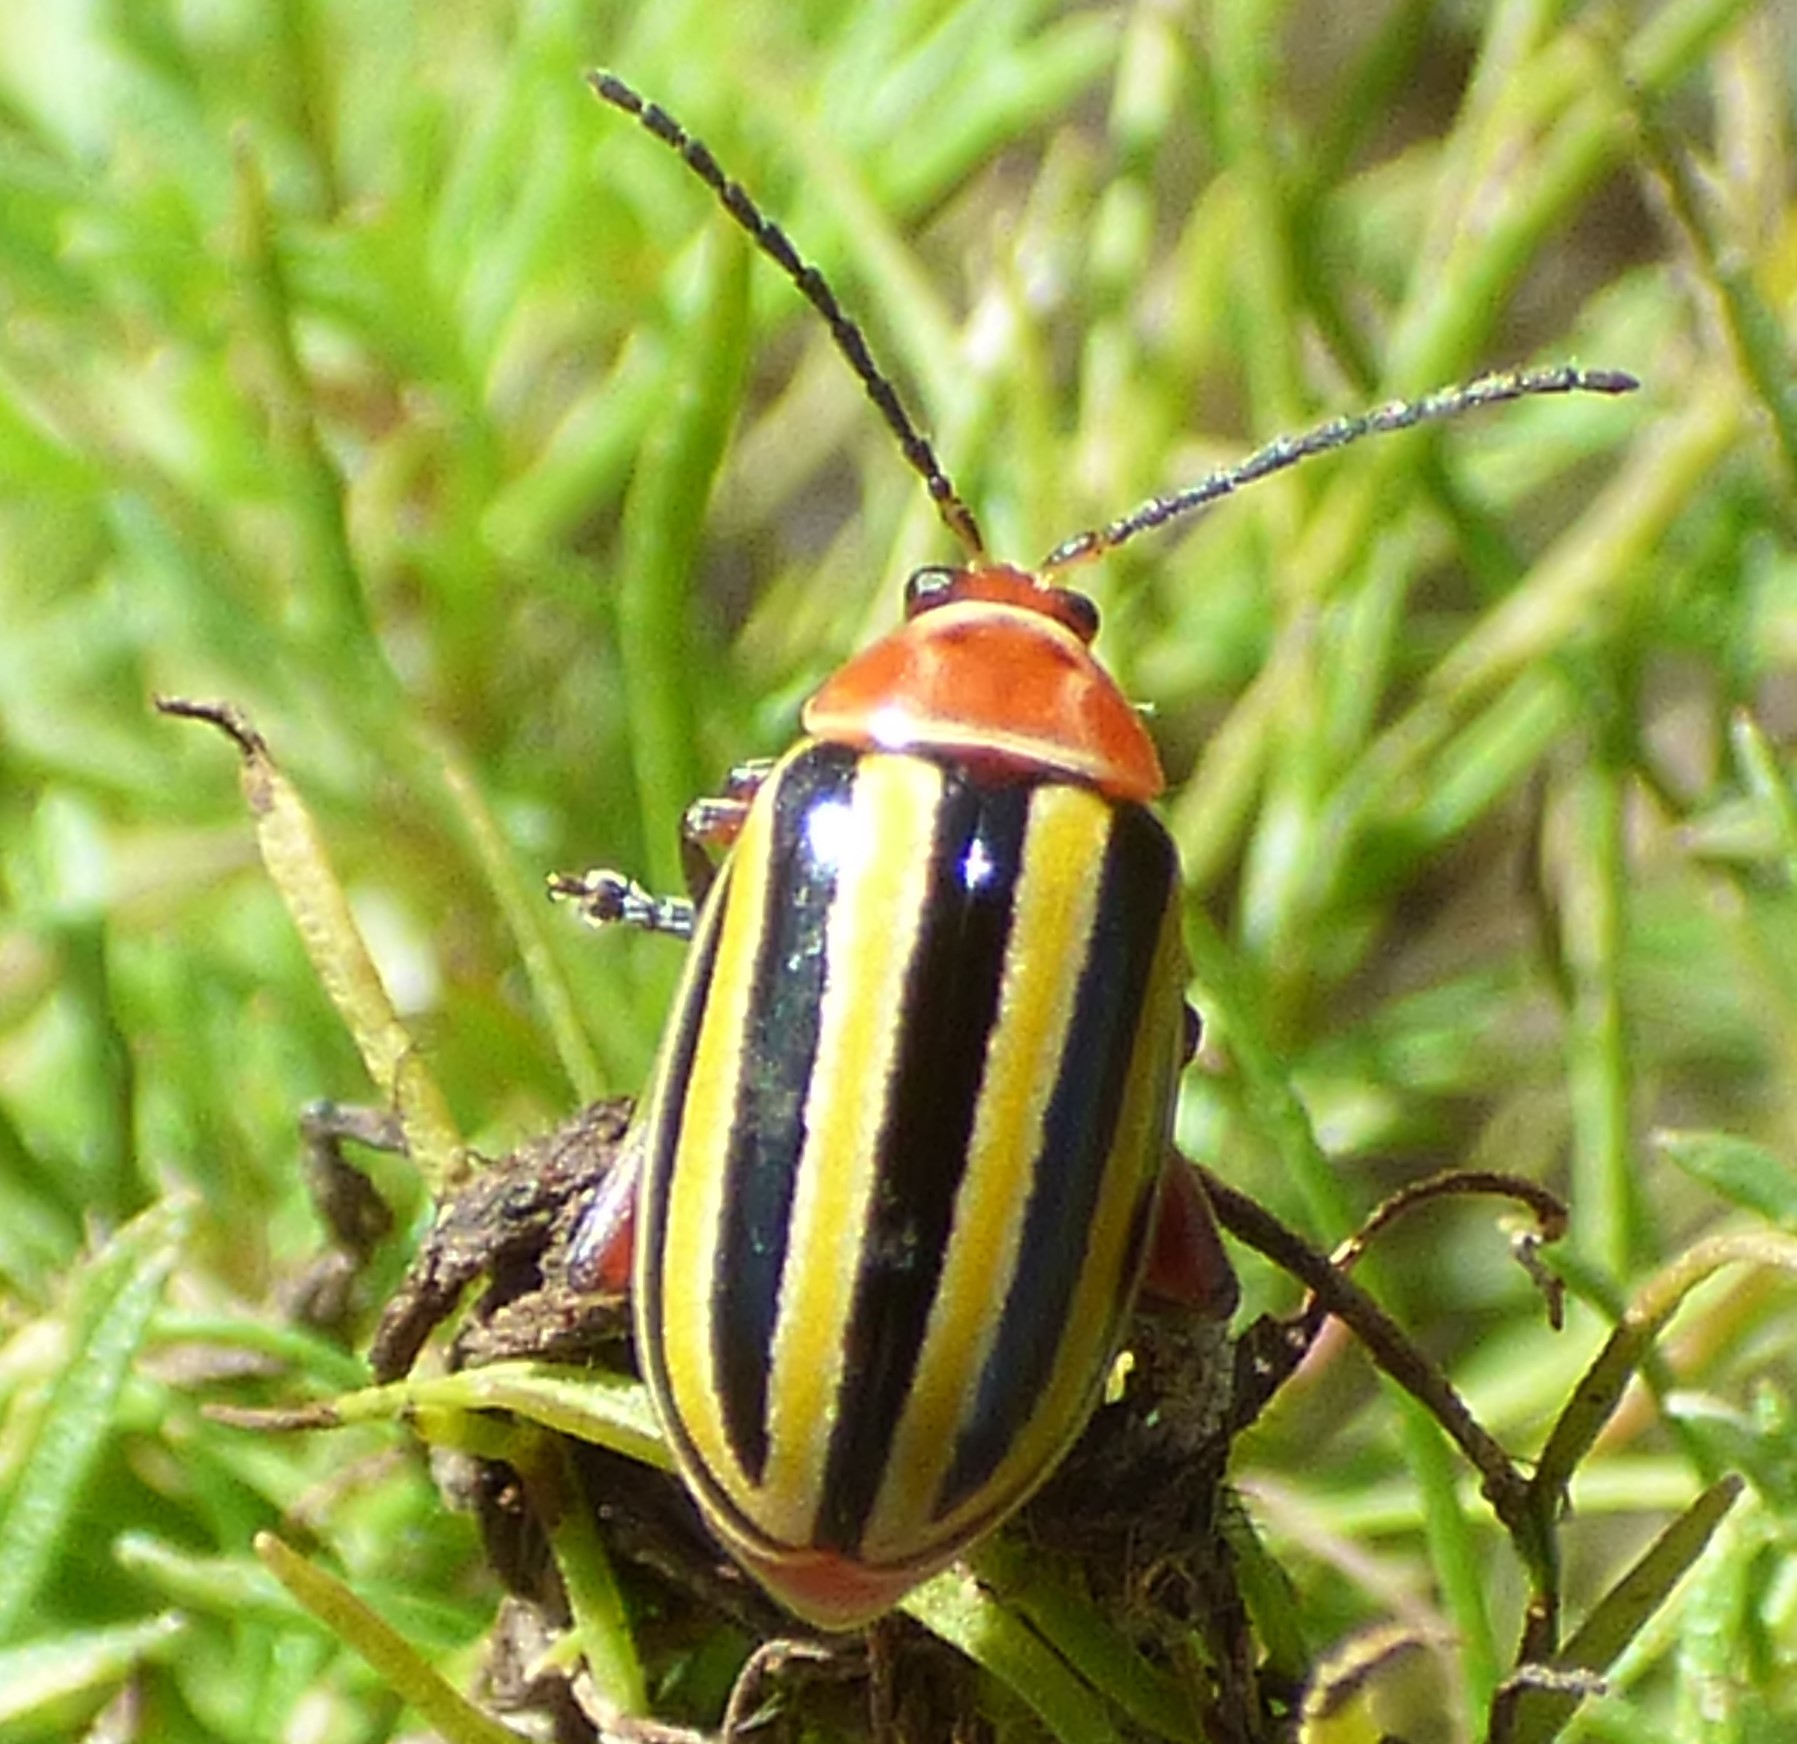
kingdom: Animalia
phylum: Arthropoda
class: Insecta
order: Coleoptera
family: Chrysomelidae
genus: Disonycha
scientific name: Disonycha admirabila
